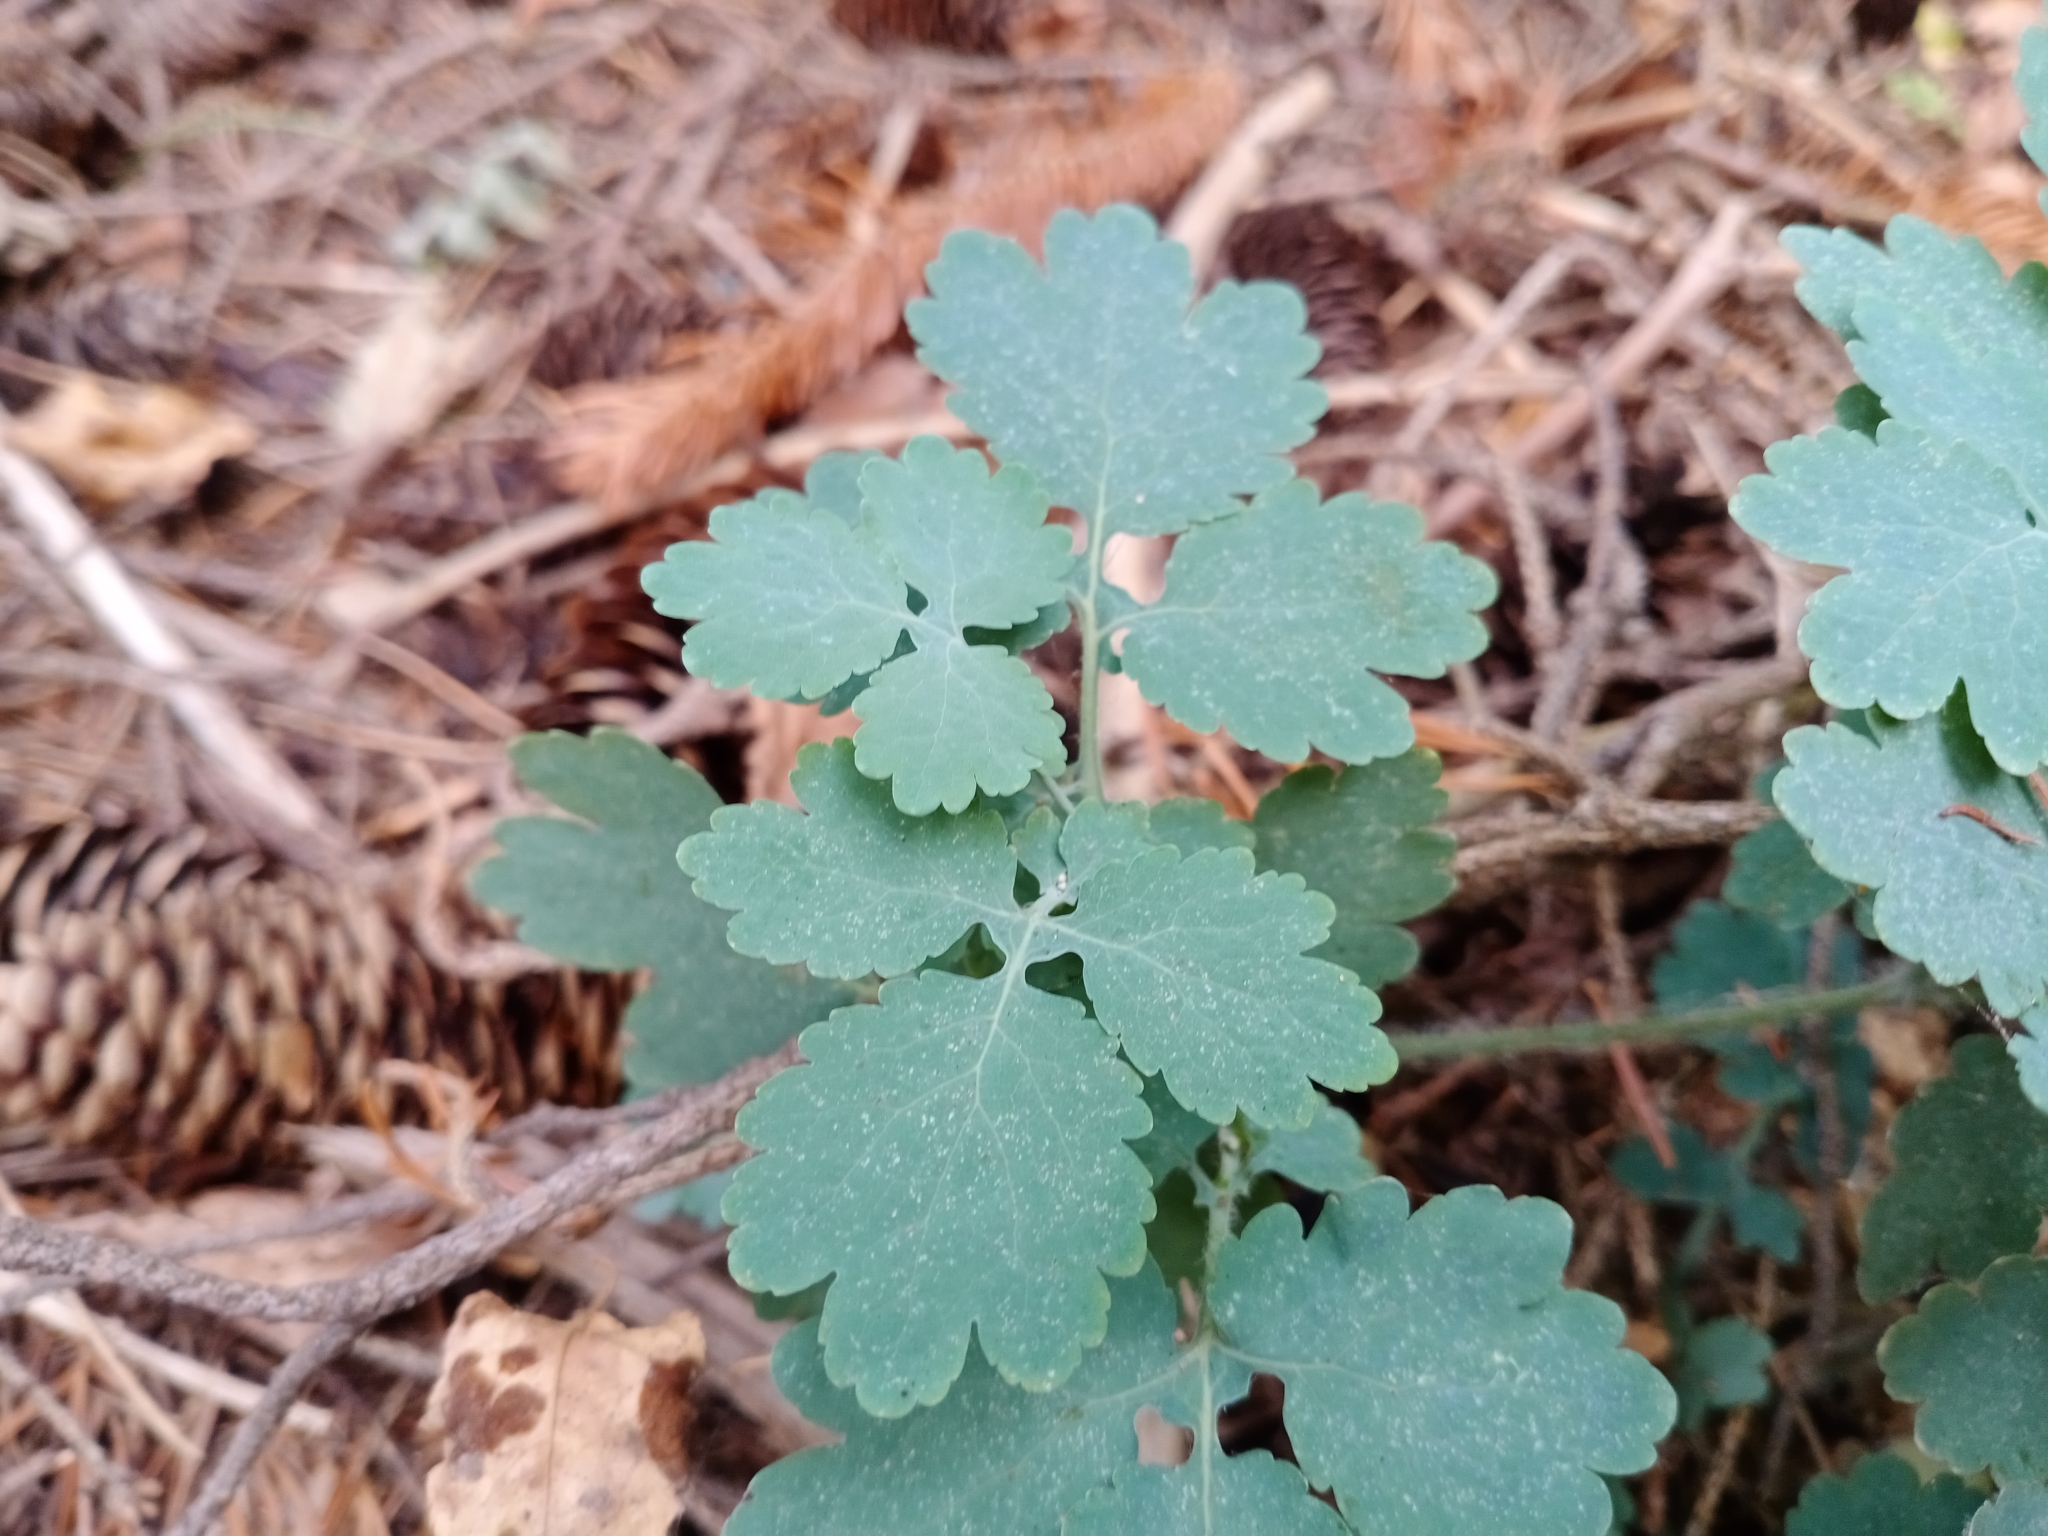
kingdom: Plantae
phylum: Tracheophyta
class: Magnoliopsida
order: Ranunculales
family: Papaveraceae
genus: Chelidonium
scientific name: Chelidonium majus
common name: Greater celandine
